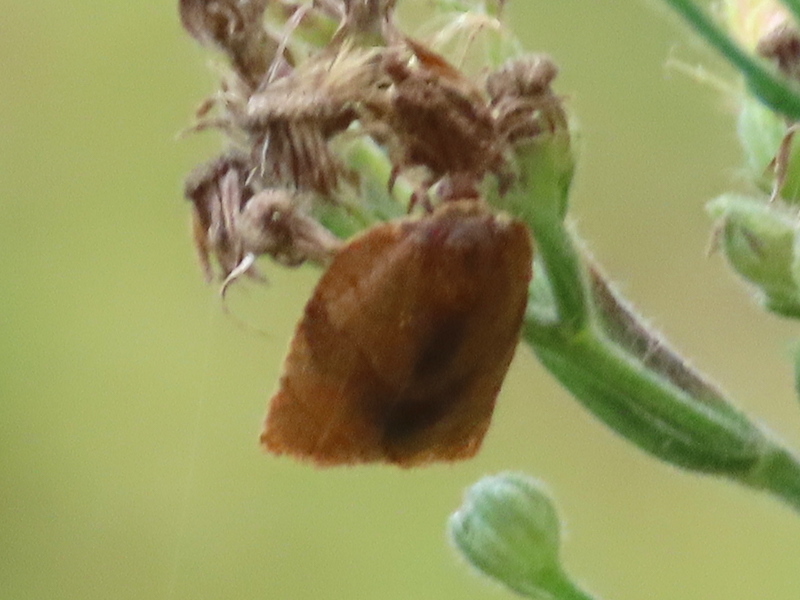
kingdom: Animalia
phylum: Arthropoda
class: Insecta
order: Lepidoptera
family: Tortricidae
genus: Cacoecimorpha
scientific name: Cacoecimorpha pronubana
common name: Carnation tortrix
